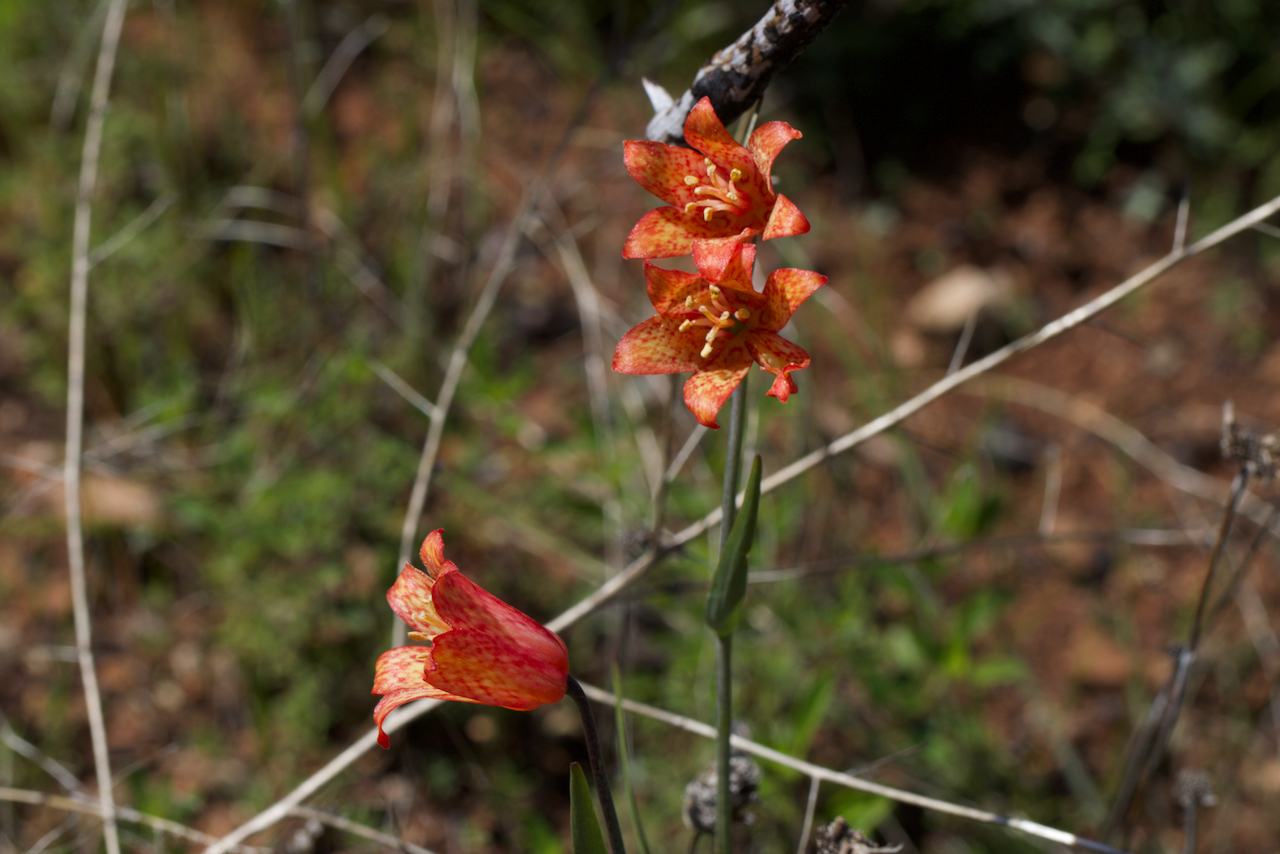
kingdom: Plantae
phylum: Tracheophyta
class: Liliopsida
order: Liliales
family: Liliaceae
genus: Fritillaria
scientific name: Fritillaria recurva
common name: Scarlet fritillary
